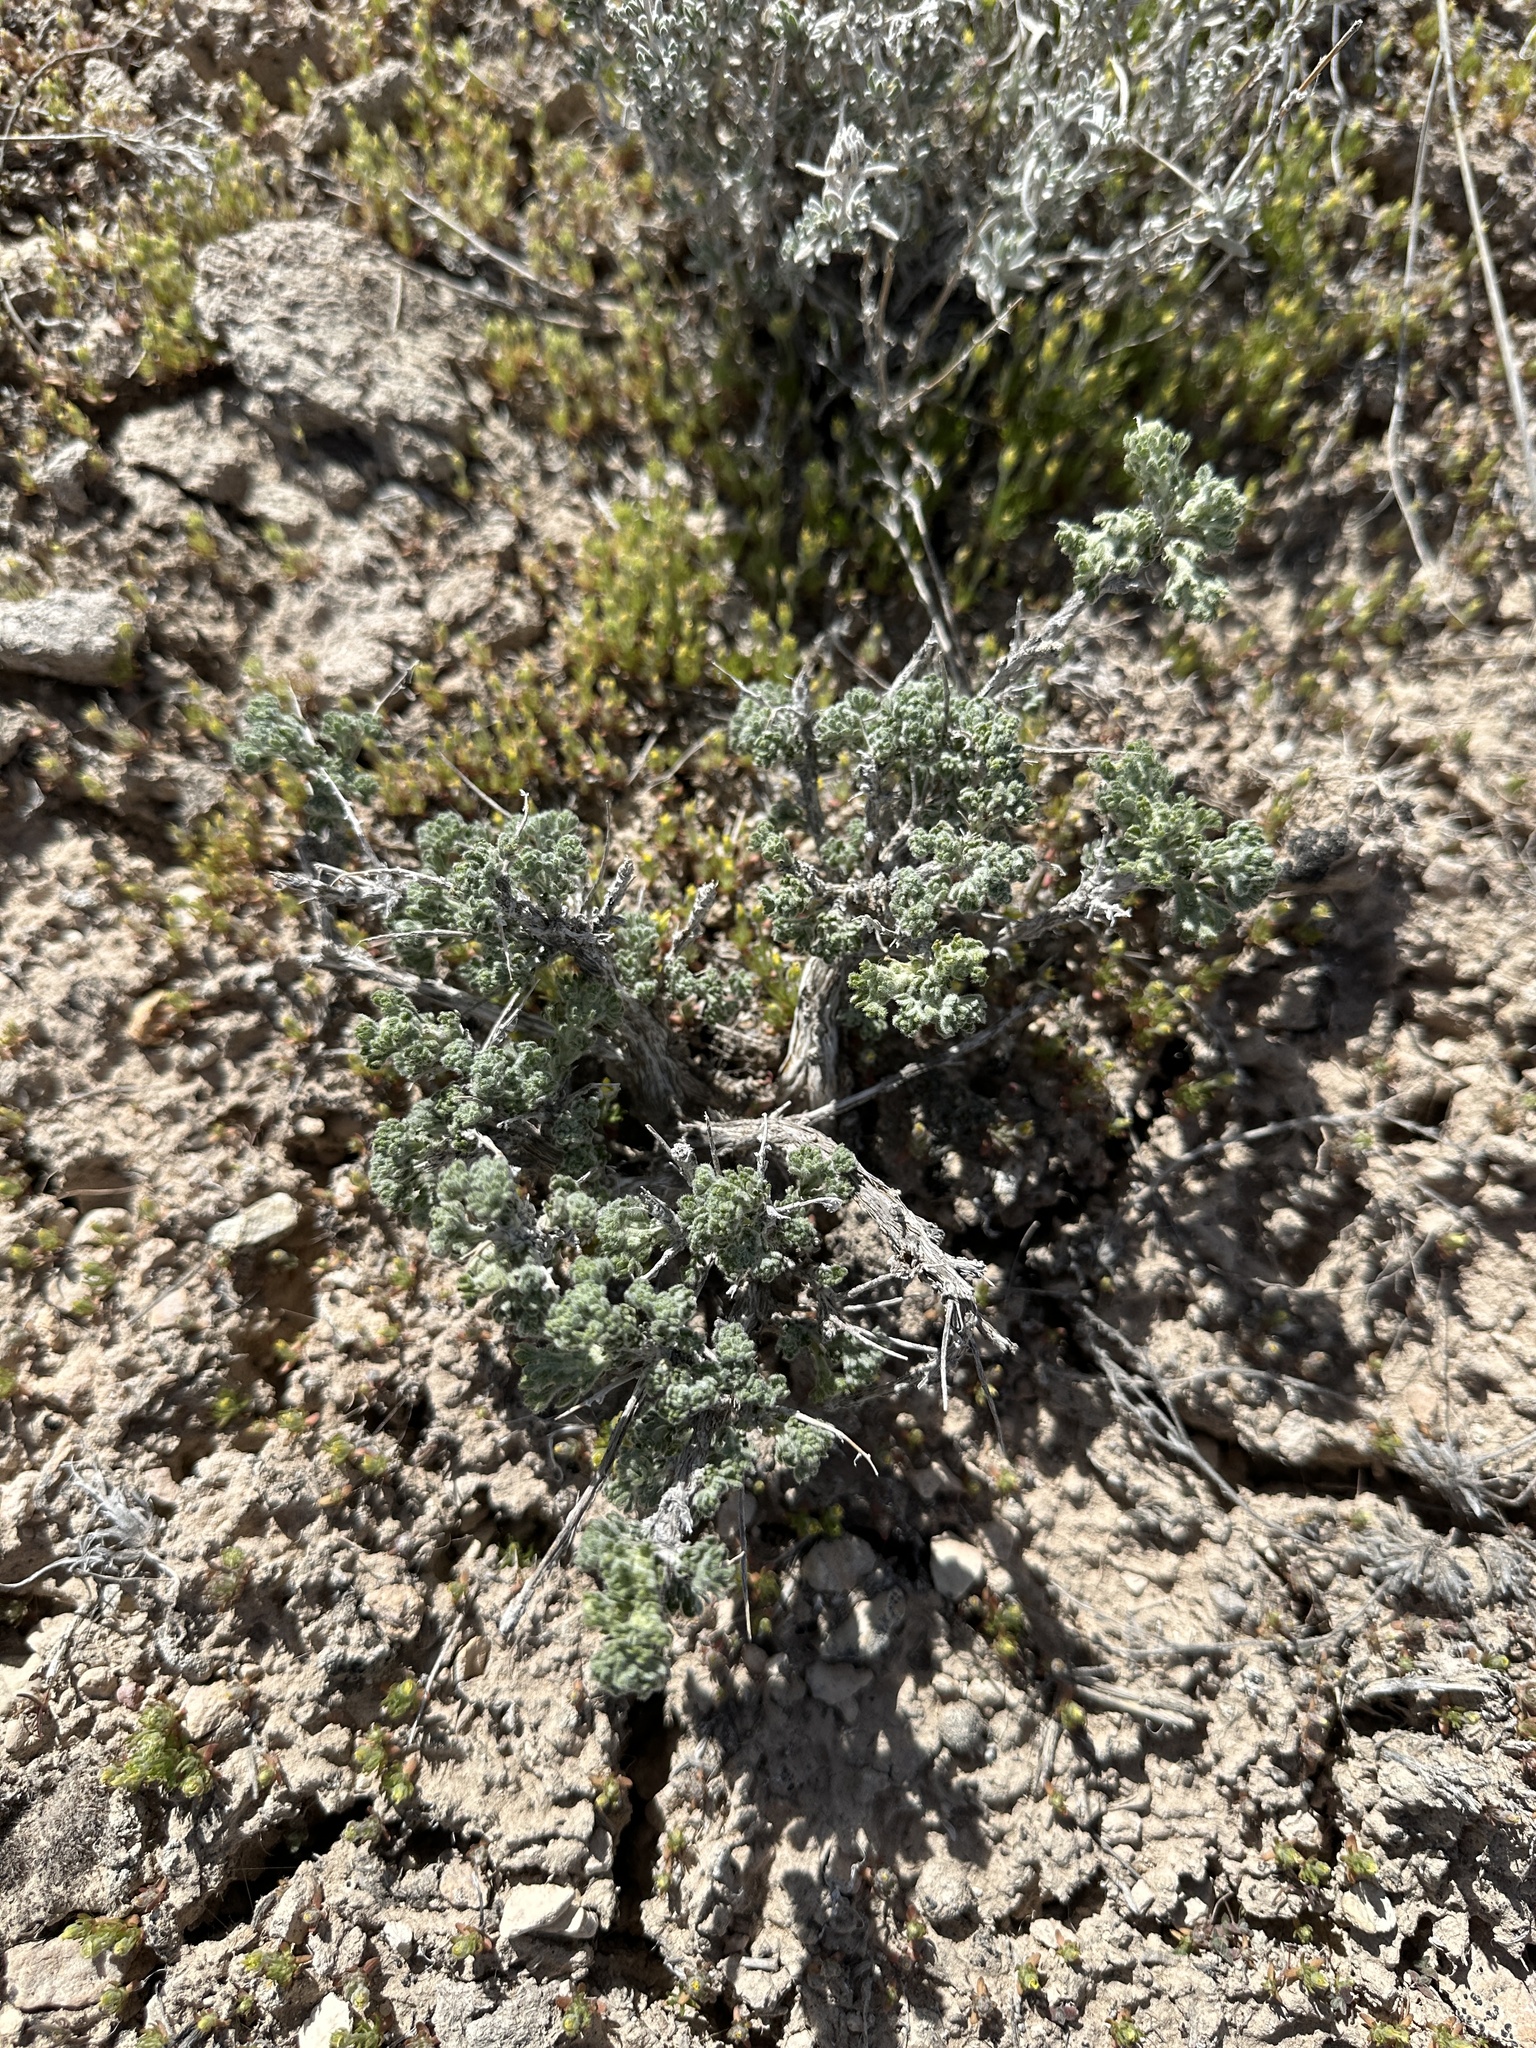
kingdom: Plantae
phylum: Tracheophyta
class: Magnoliopsida
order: Asterales
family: Asteraceae
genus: Artemisia
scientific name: Artemisia spinescens
